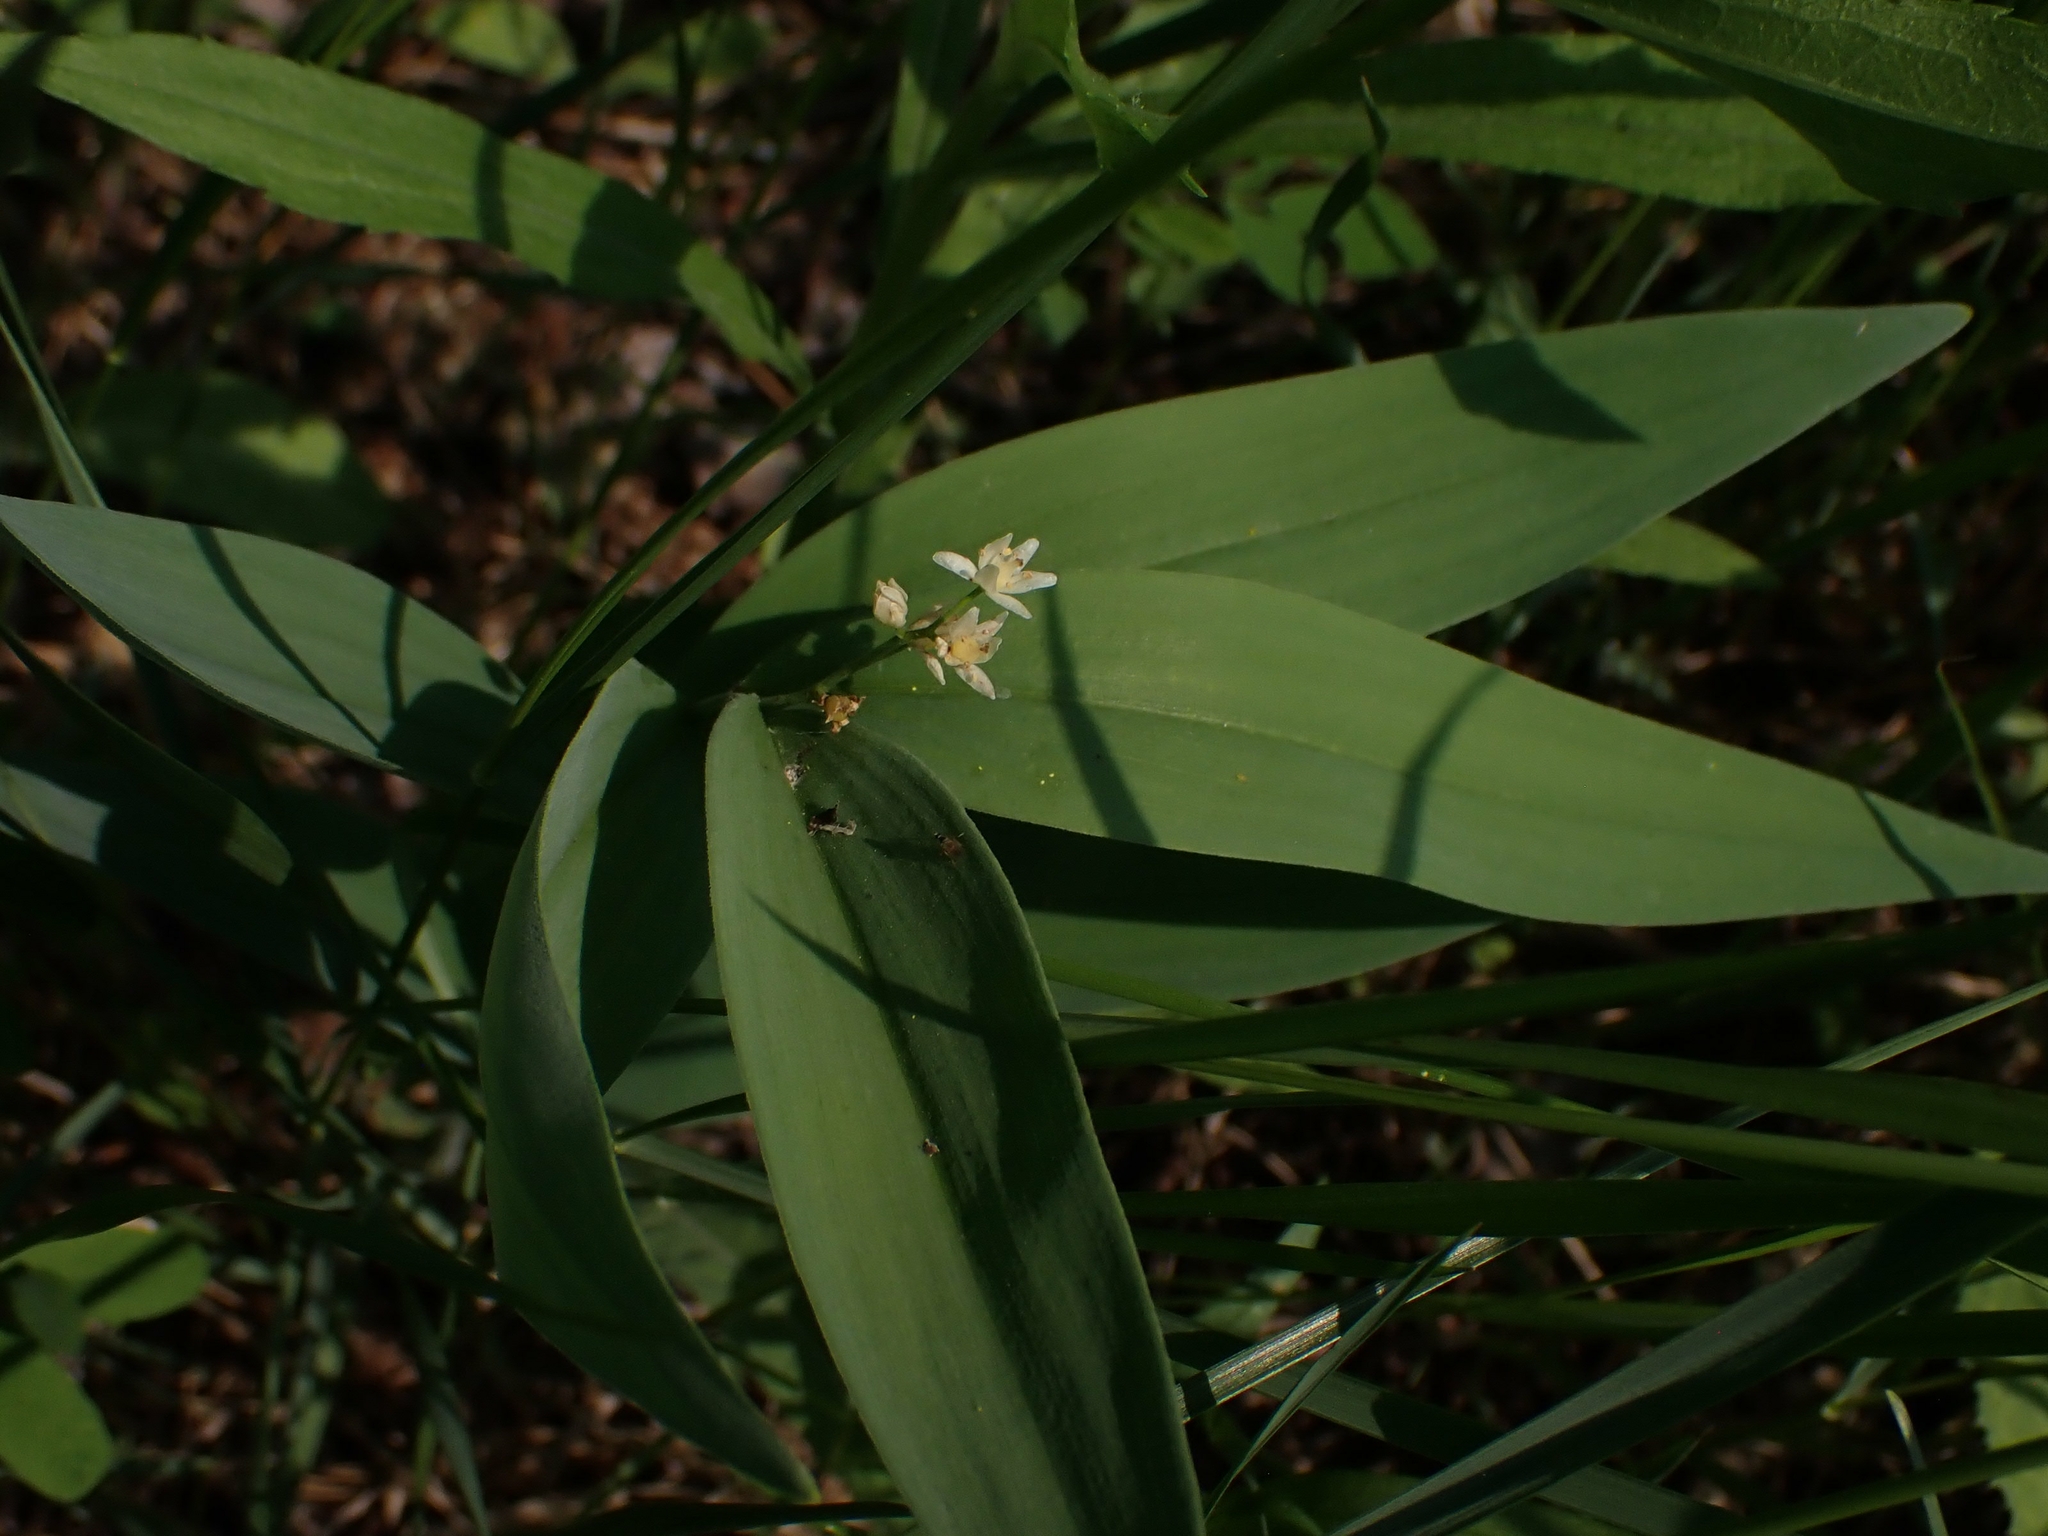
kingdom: Plantae
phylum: Tracheophyta
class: Liliopsida
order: Asparagales
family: Asparagaceae
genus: Maianthemum
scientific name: Maianthemum stellatum
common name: Little false solomon's seal
